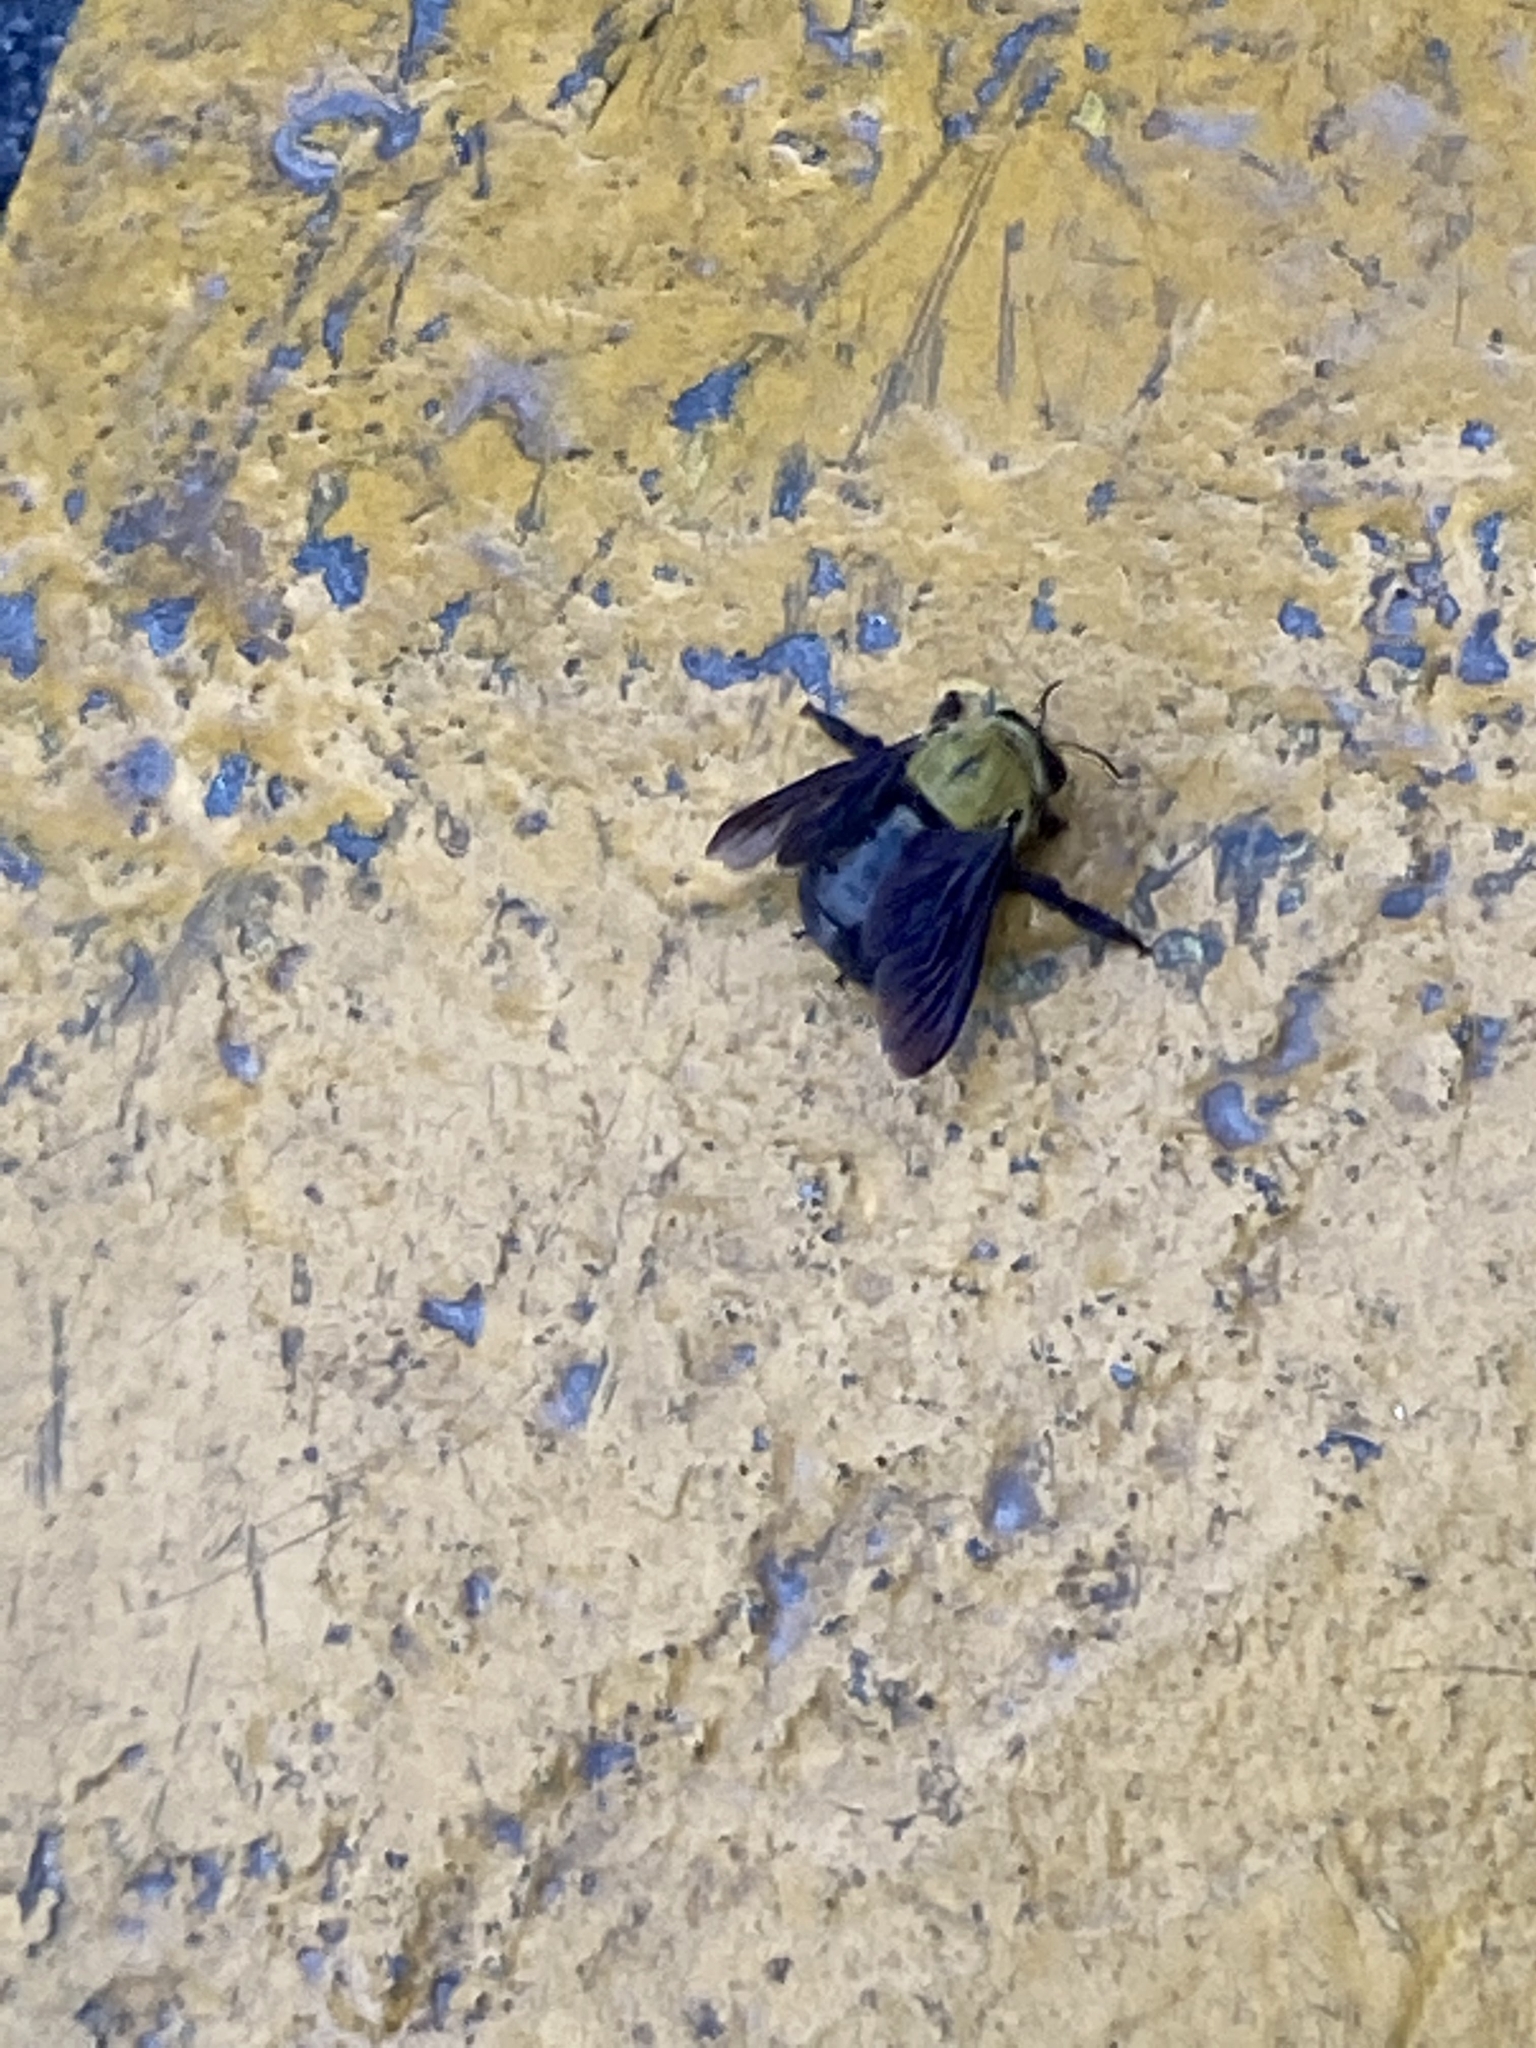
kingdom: Animalia
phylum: Arthropoda
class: Insecta
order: Hymenoptera
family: Apidae
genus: Xylocopa
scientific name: Xylocopa ruficornis
